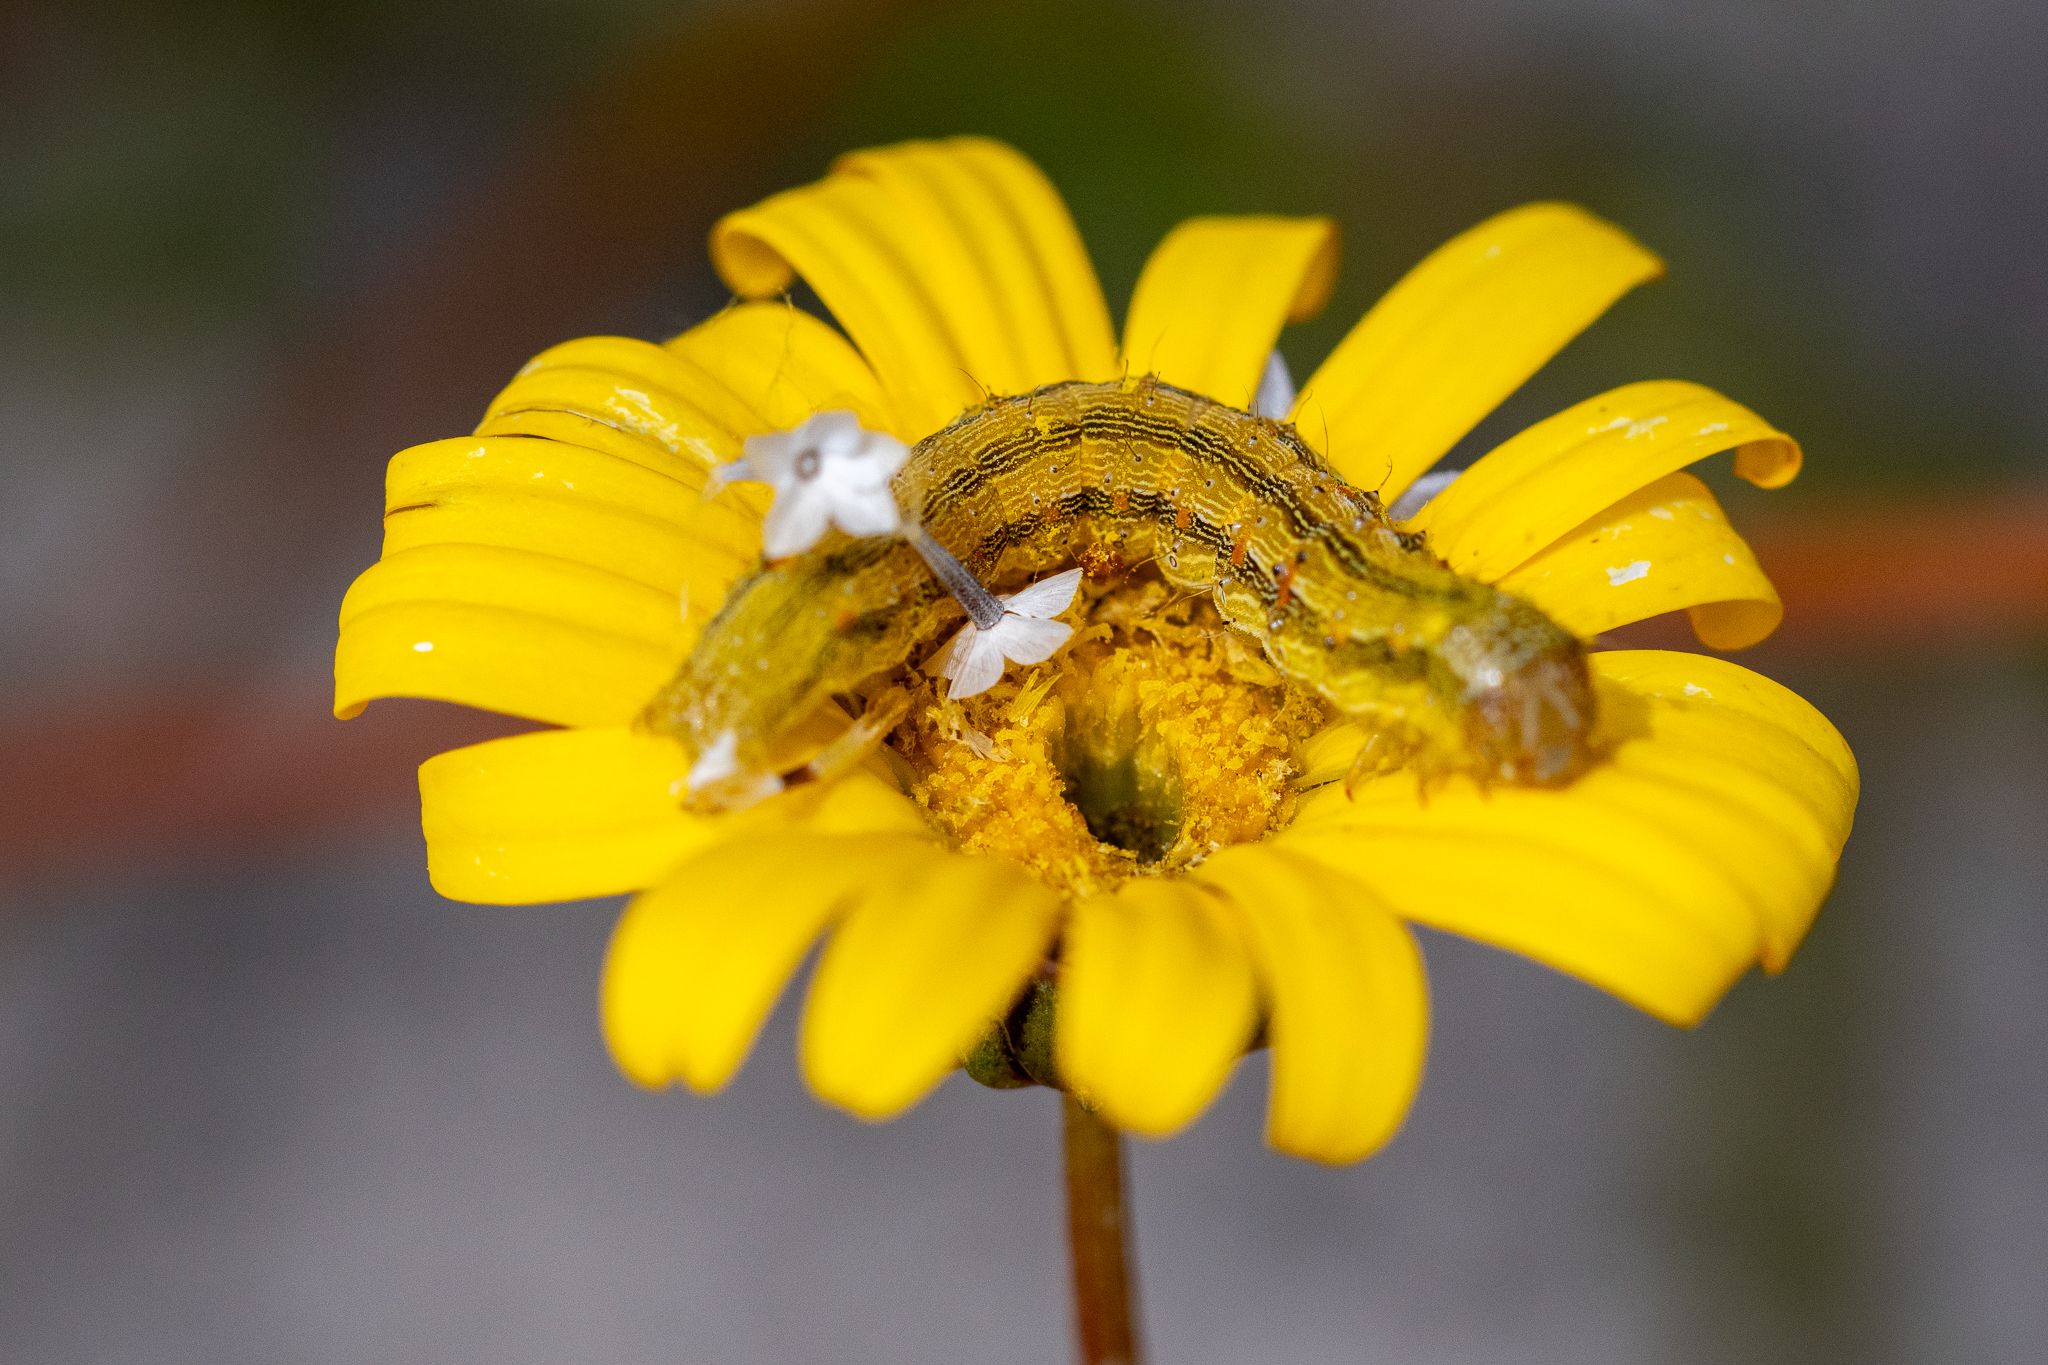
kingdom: Animalia
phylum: Arthropoda
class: Insecta
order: Lepidoptera
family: Noctuidae
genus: Helicoverpa
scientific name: Helicoverpa armigera
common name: Cotton bollworm
